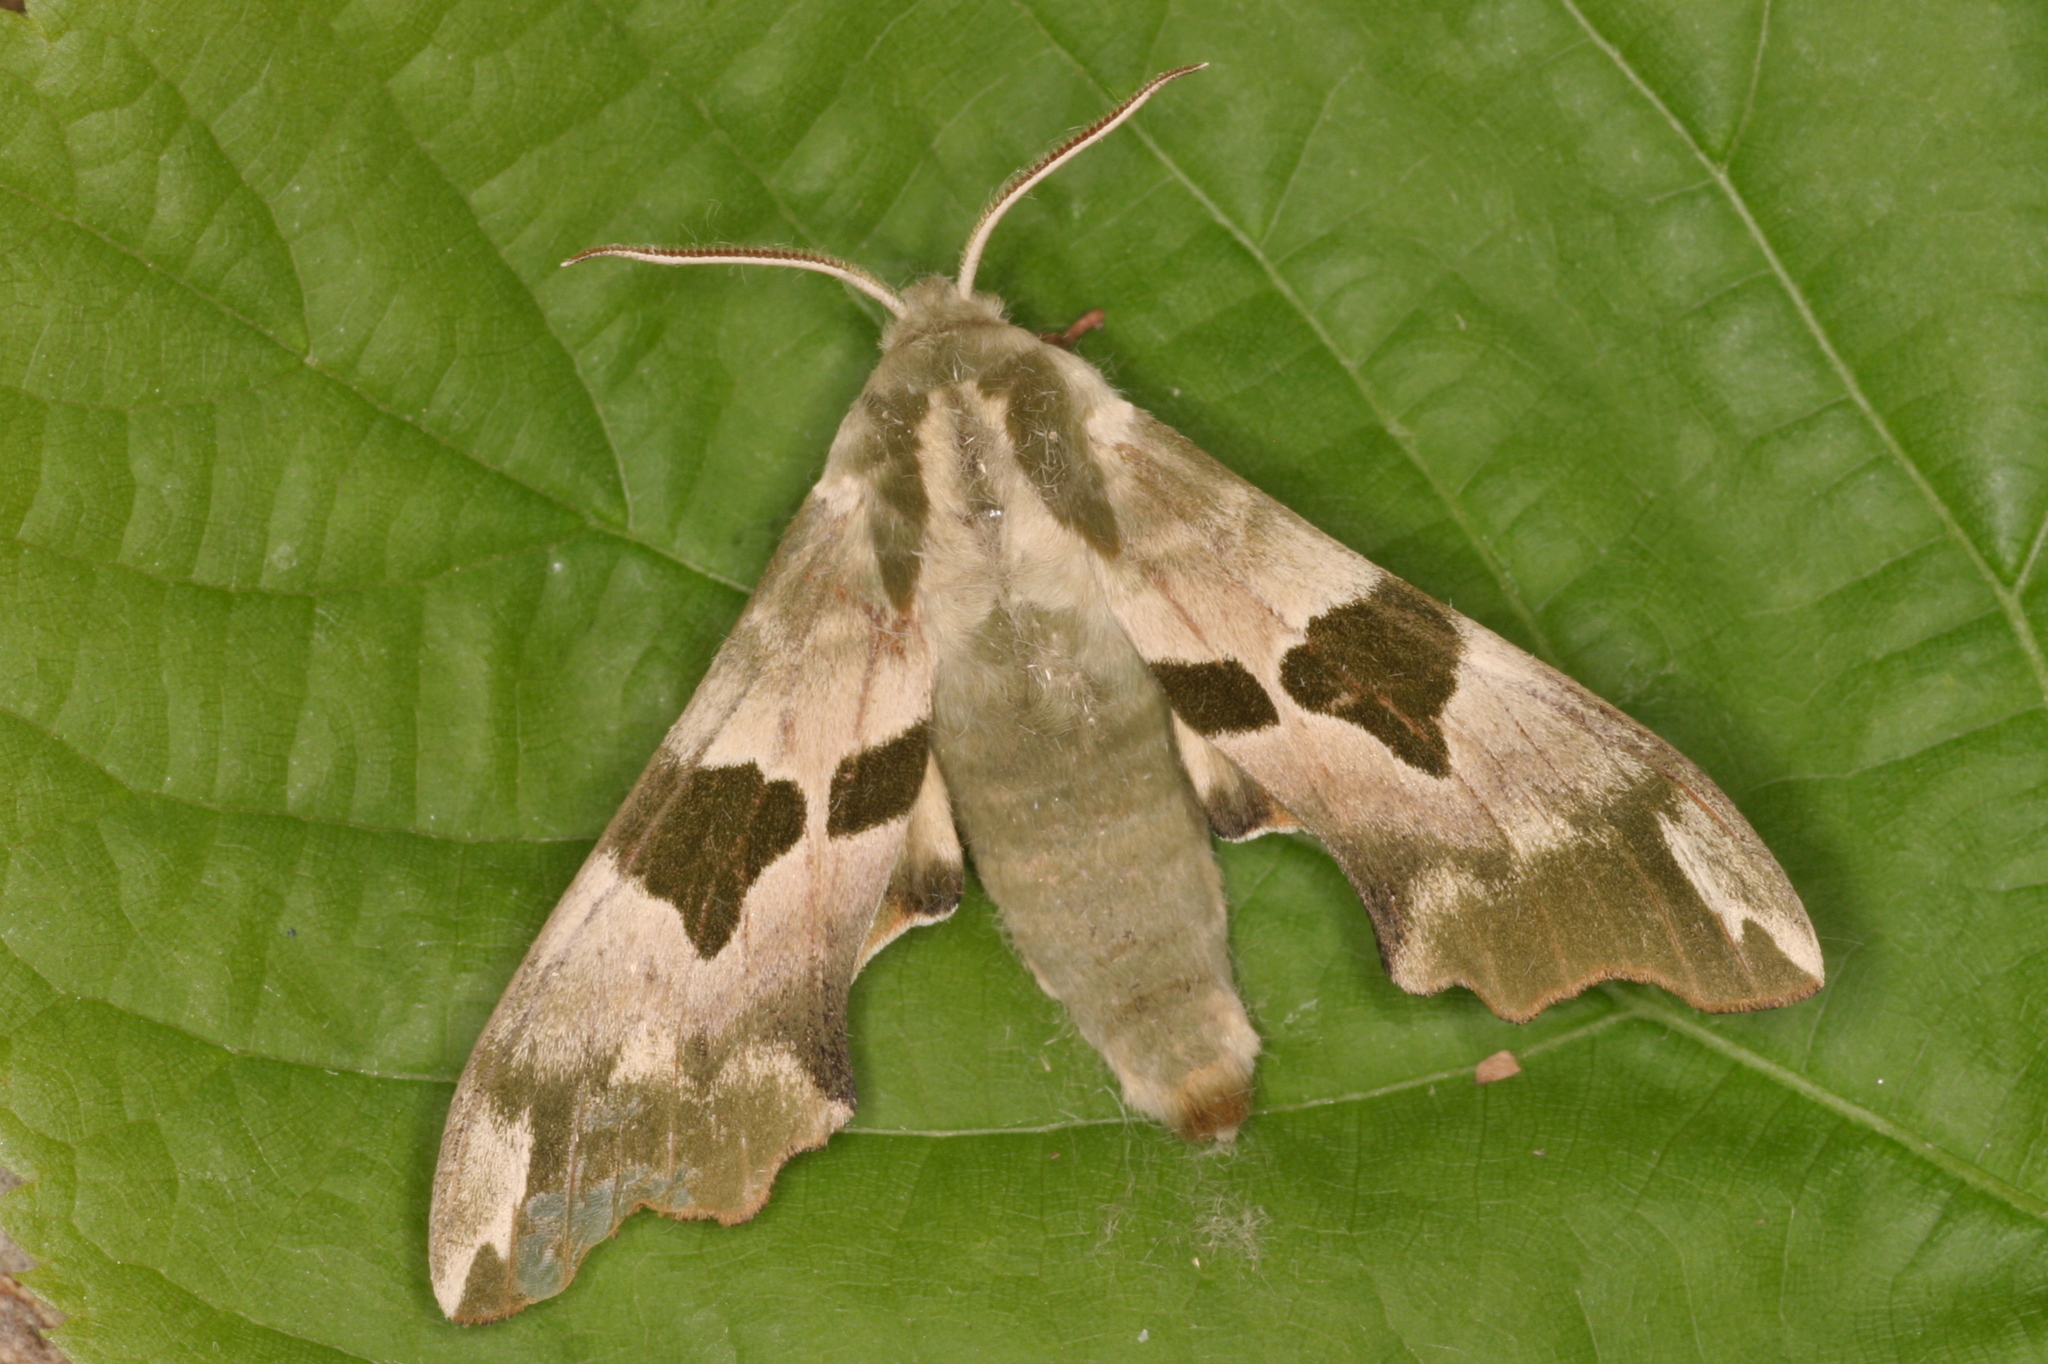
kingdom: Animalia
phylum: Arthropoda
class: Insecta
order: Lepidoptera
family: Sphingidae
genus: Mimas
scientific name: Mimas tiliae
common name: Lime hawk-moth
